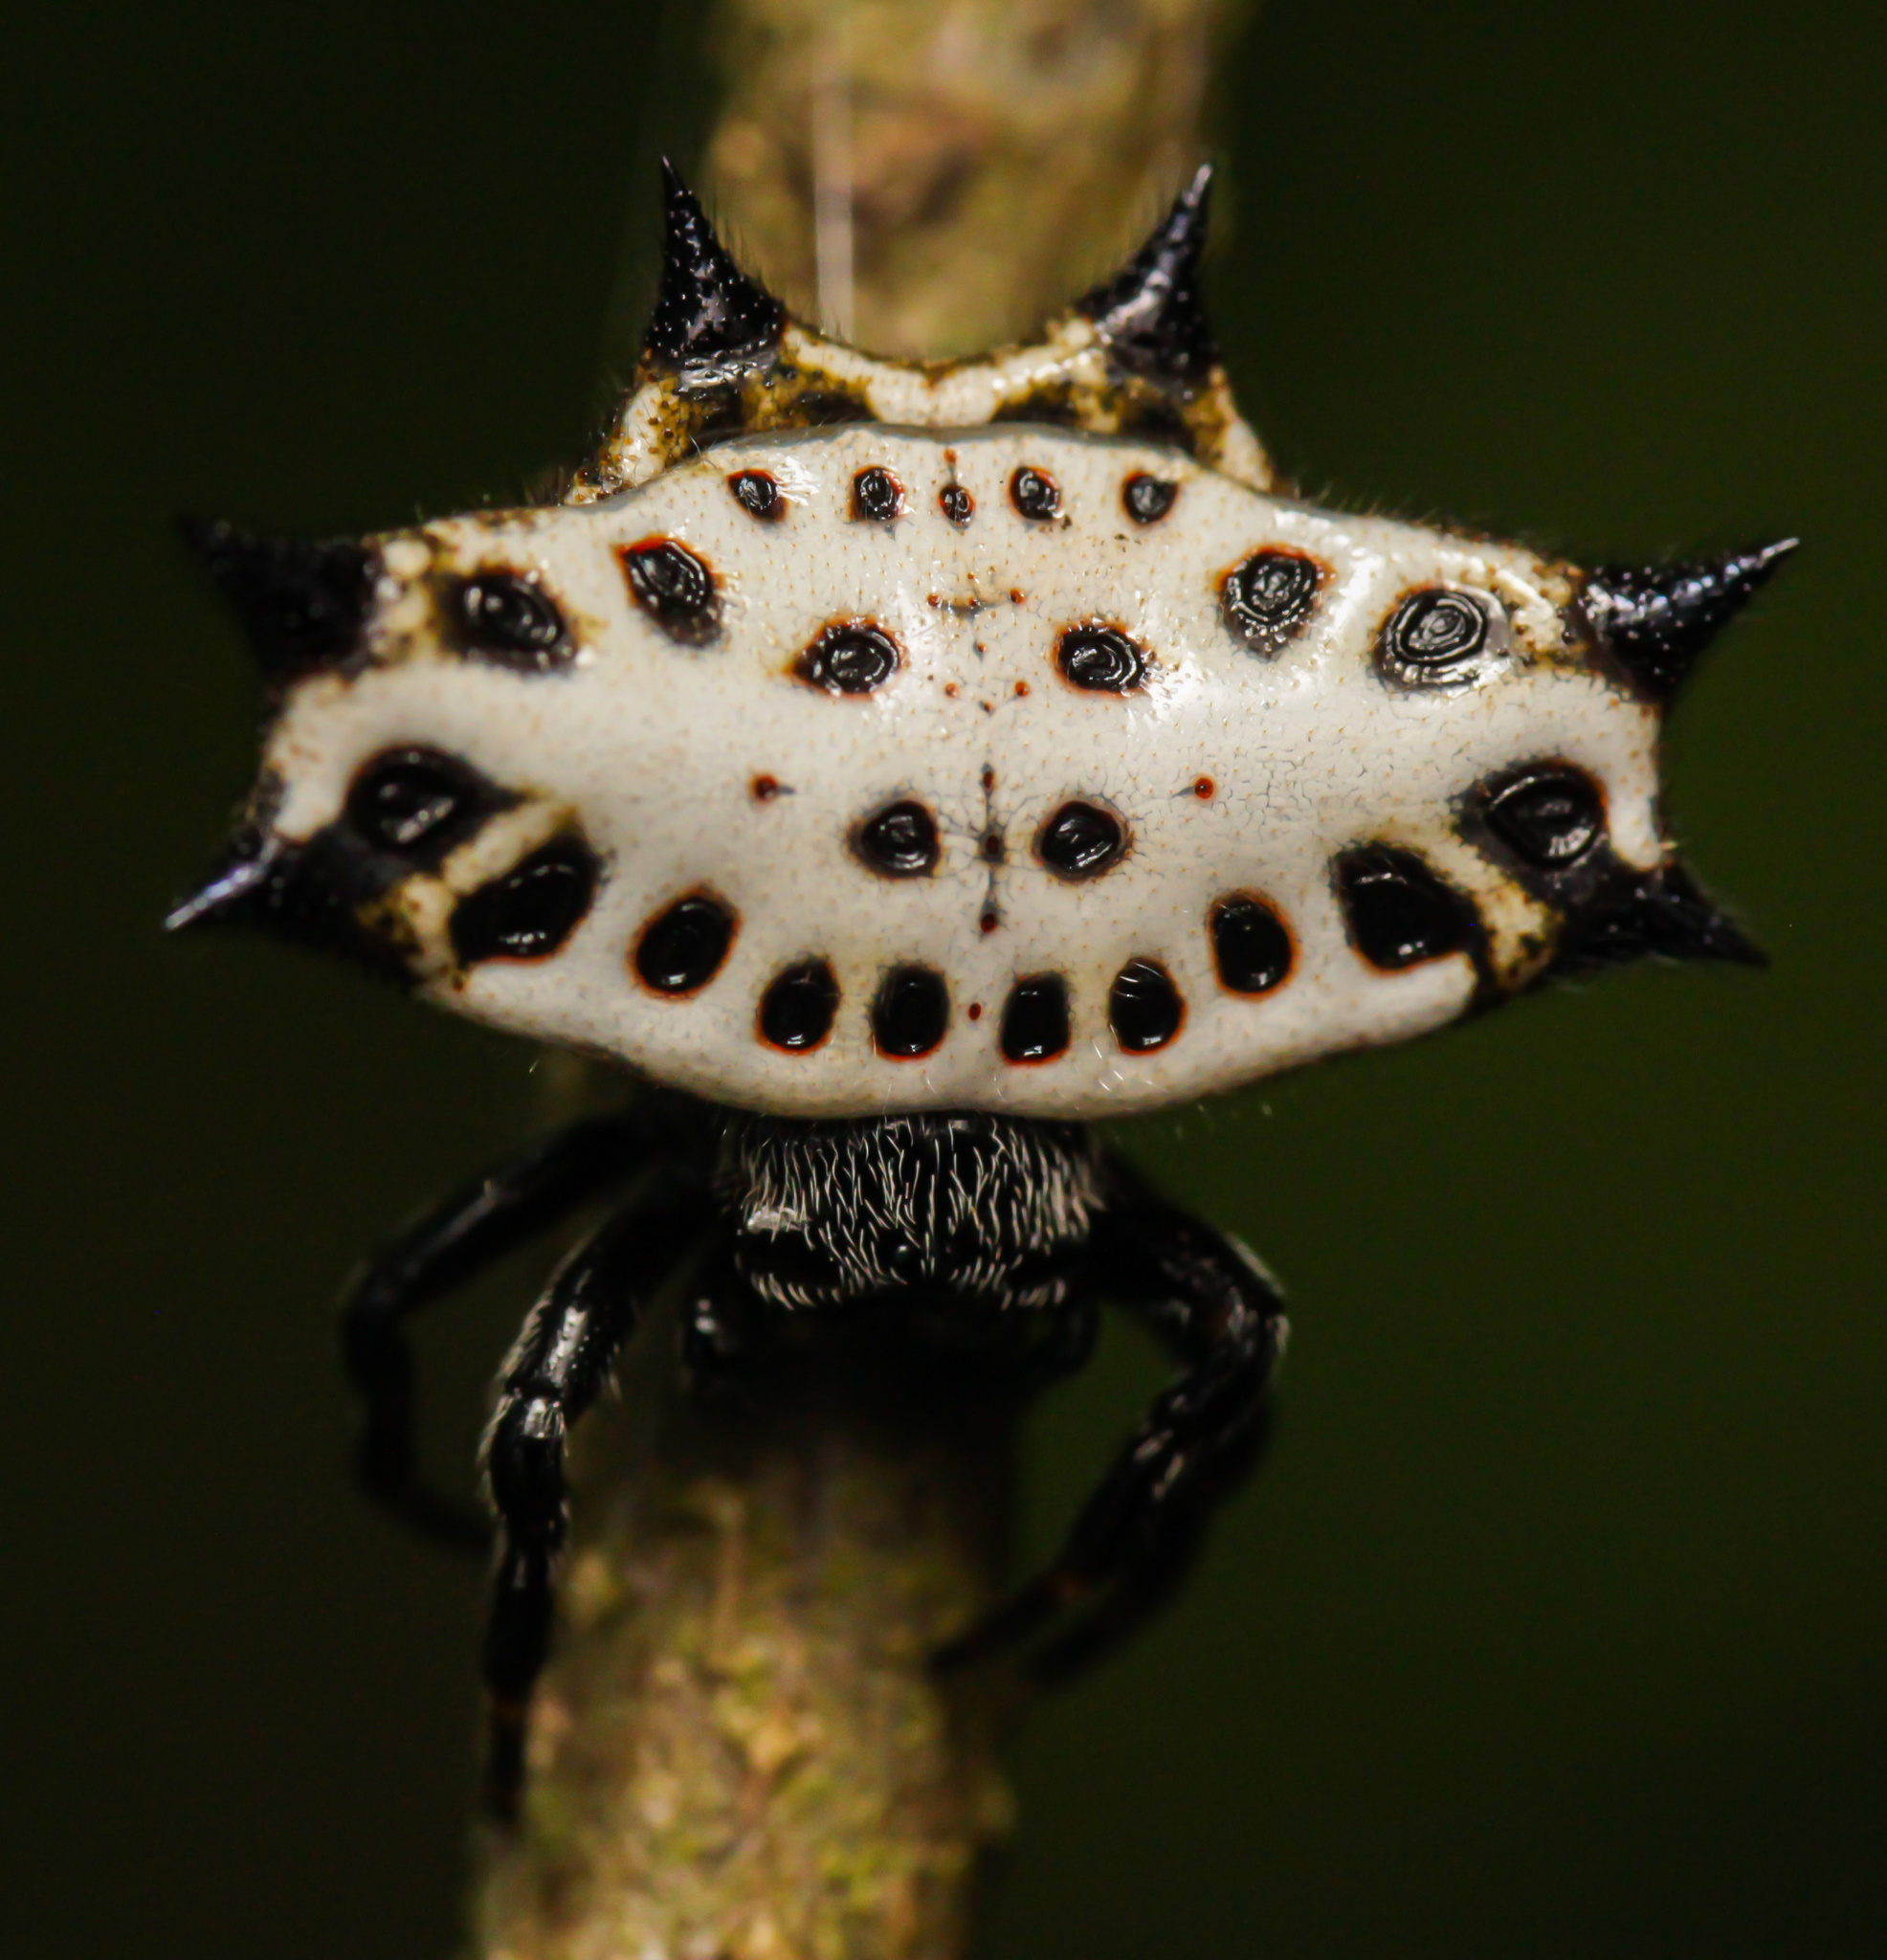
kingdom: Animalia
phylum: Arthropoda
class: Arachnida
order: Araneae
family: Araneidae
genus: Gasteracantha
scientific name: Gasteracantha cancriformis
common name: Orb weavers
